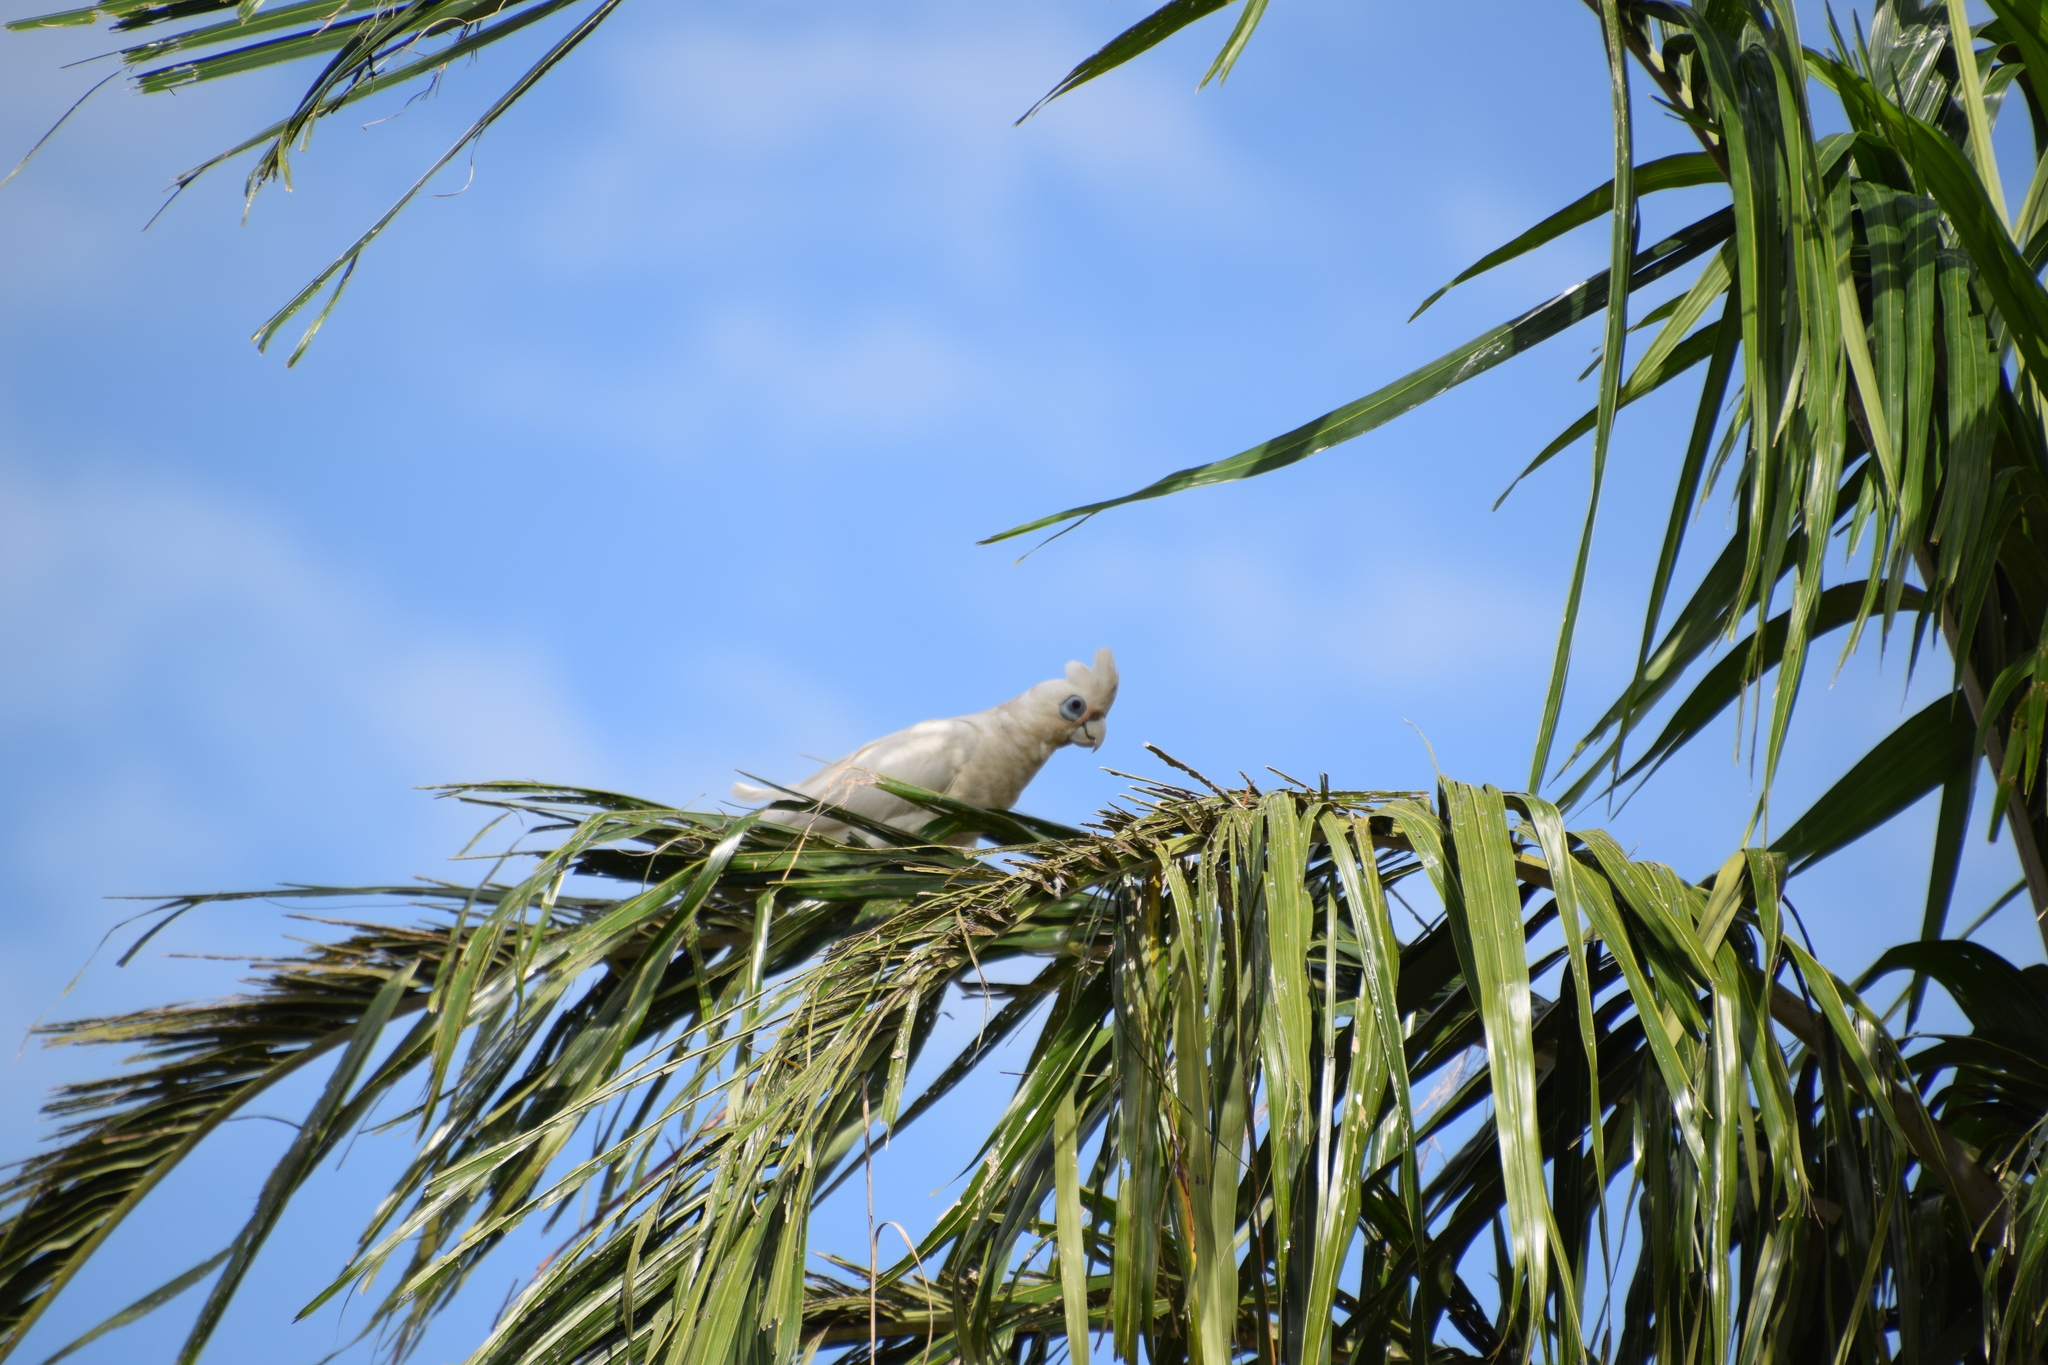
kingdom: Animalia
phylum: Chordata
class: Aves
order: Psittaciformes
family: Psittacidae
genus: Cacatua
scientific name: Cacatua sanguinea
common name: Little corella
